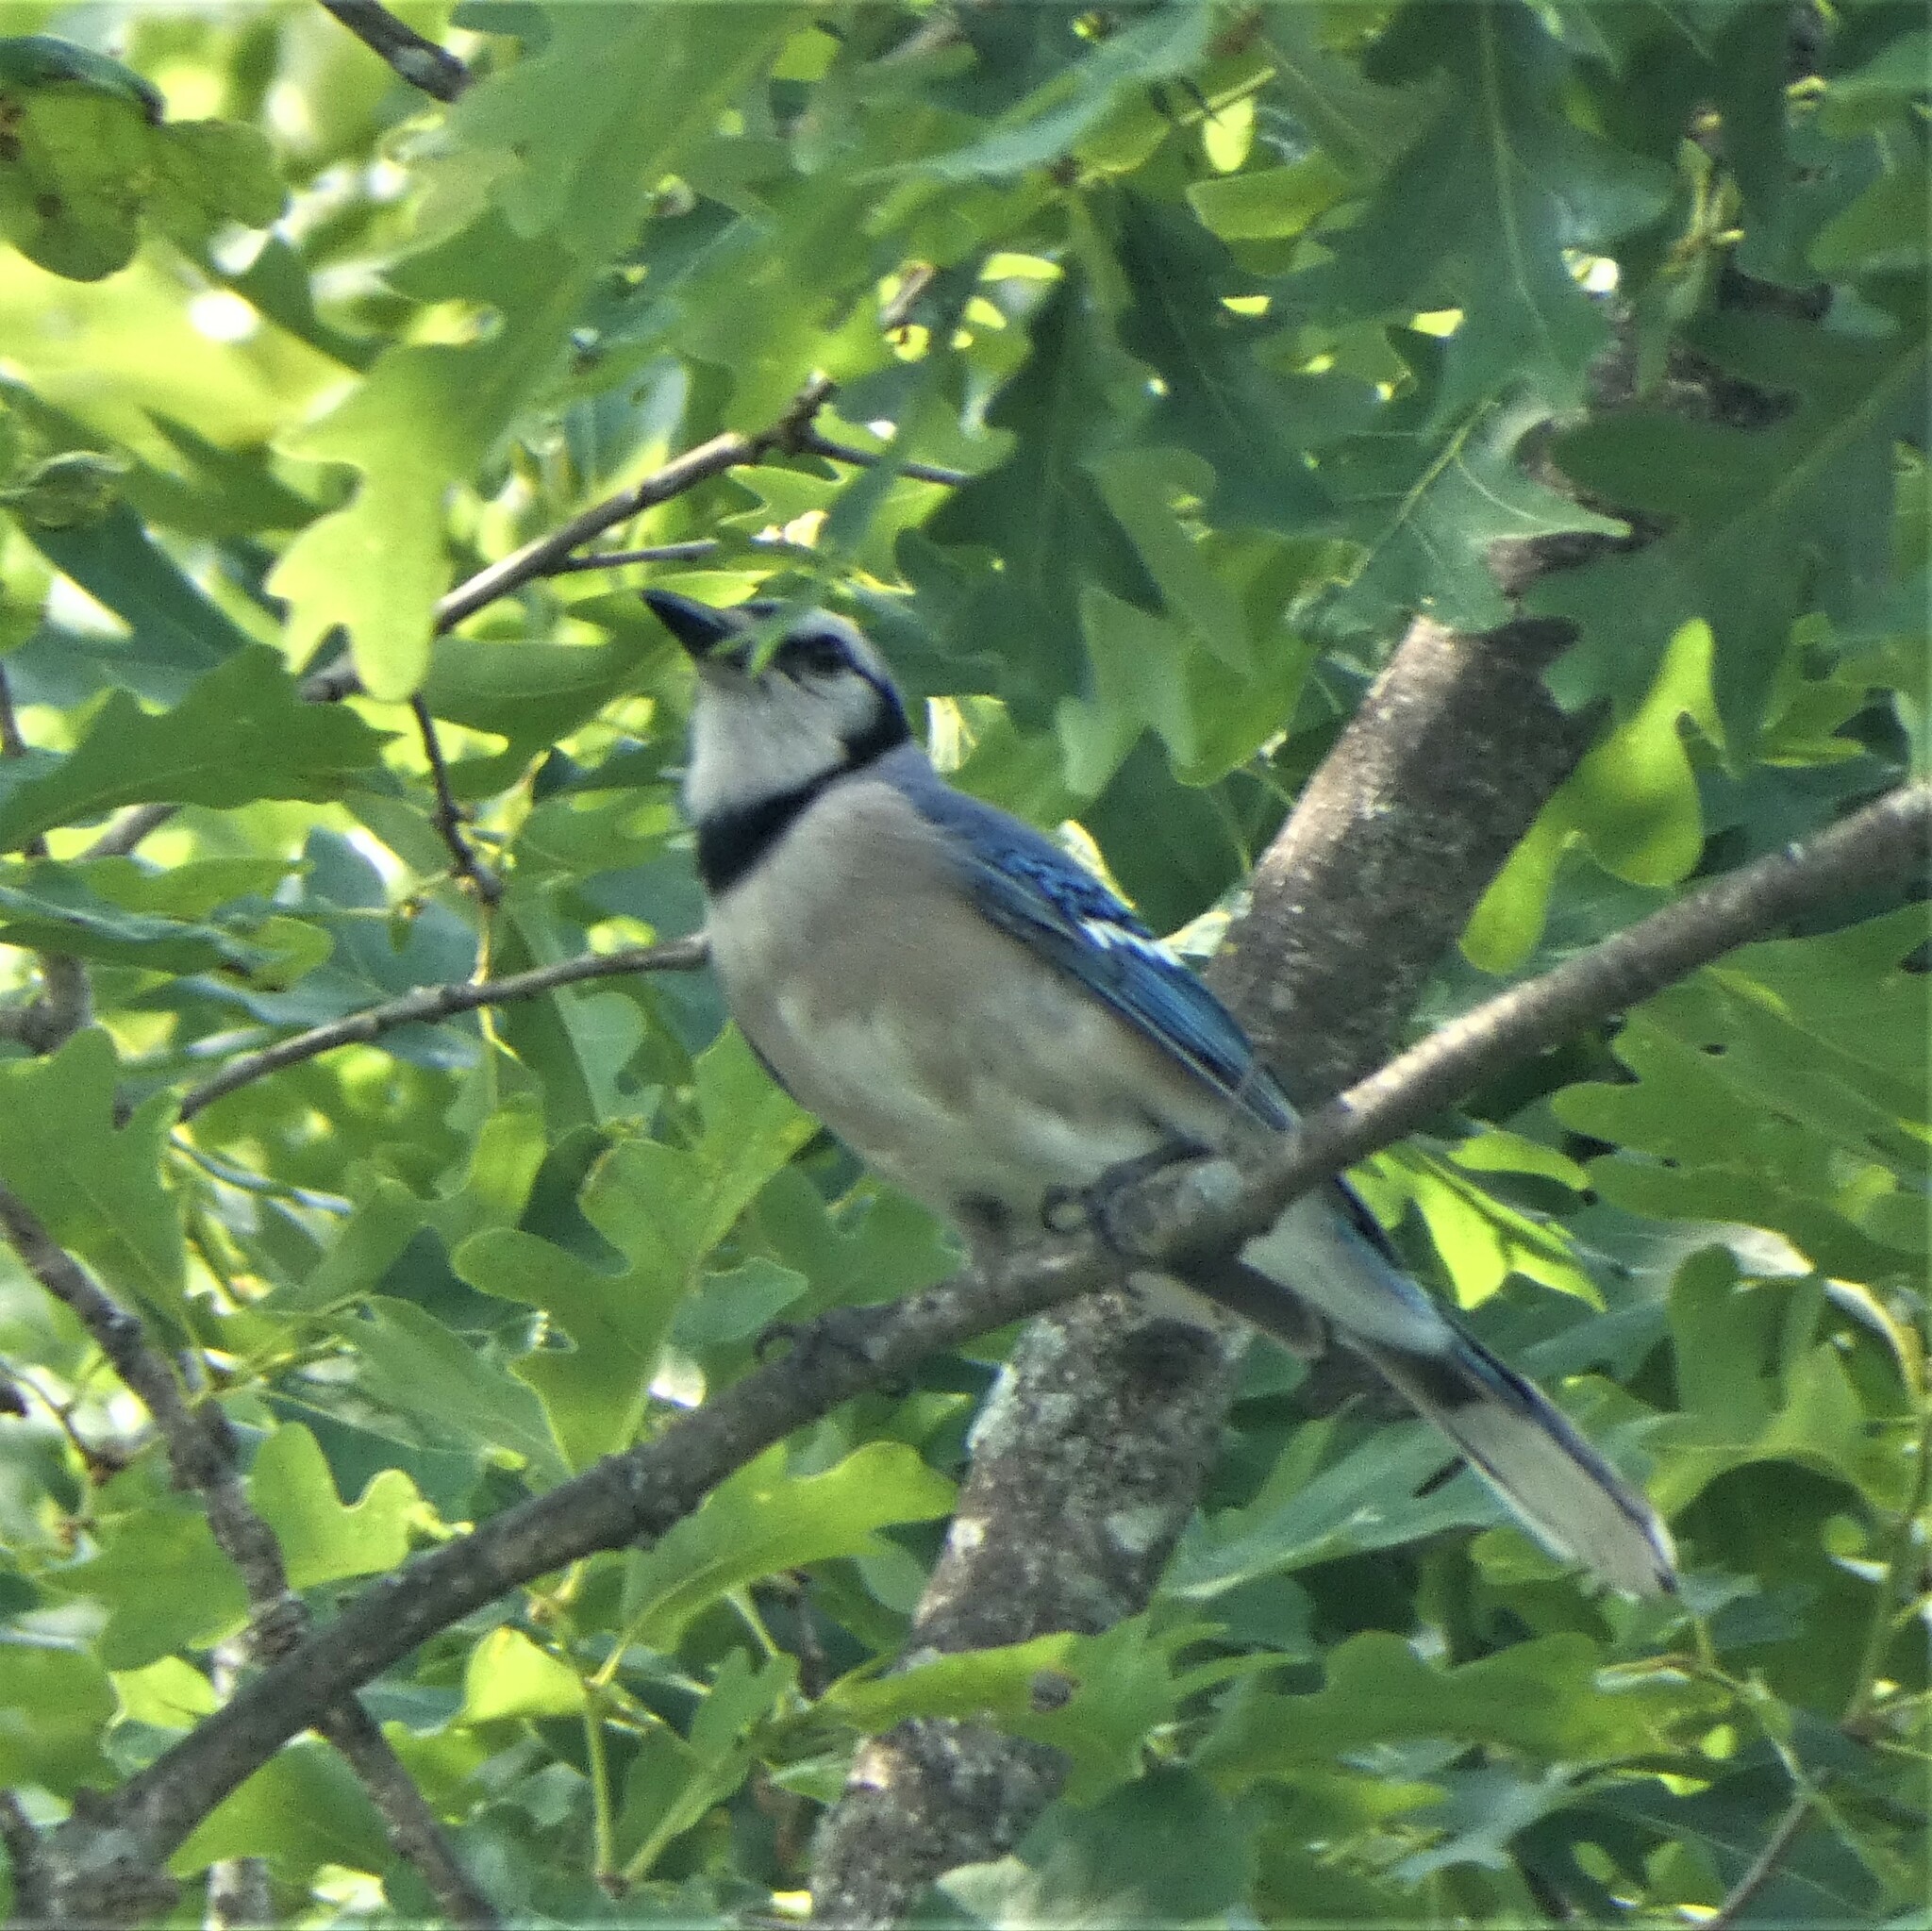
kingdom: Animalia
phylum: Chordata
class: Aves
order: Passeriformes
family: Corvidae
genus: Cyanocitta
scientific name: Cyanocitta cristata
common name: Blue jay
